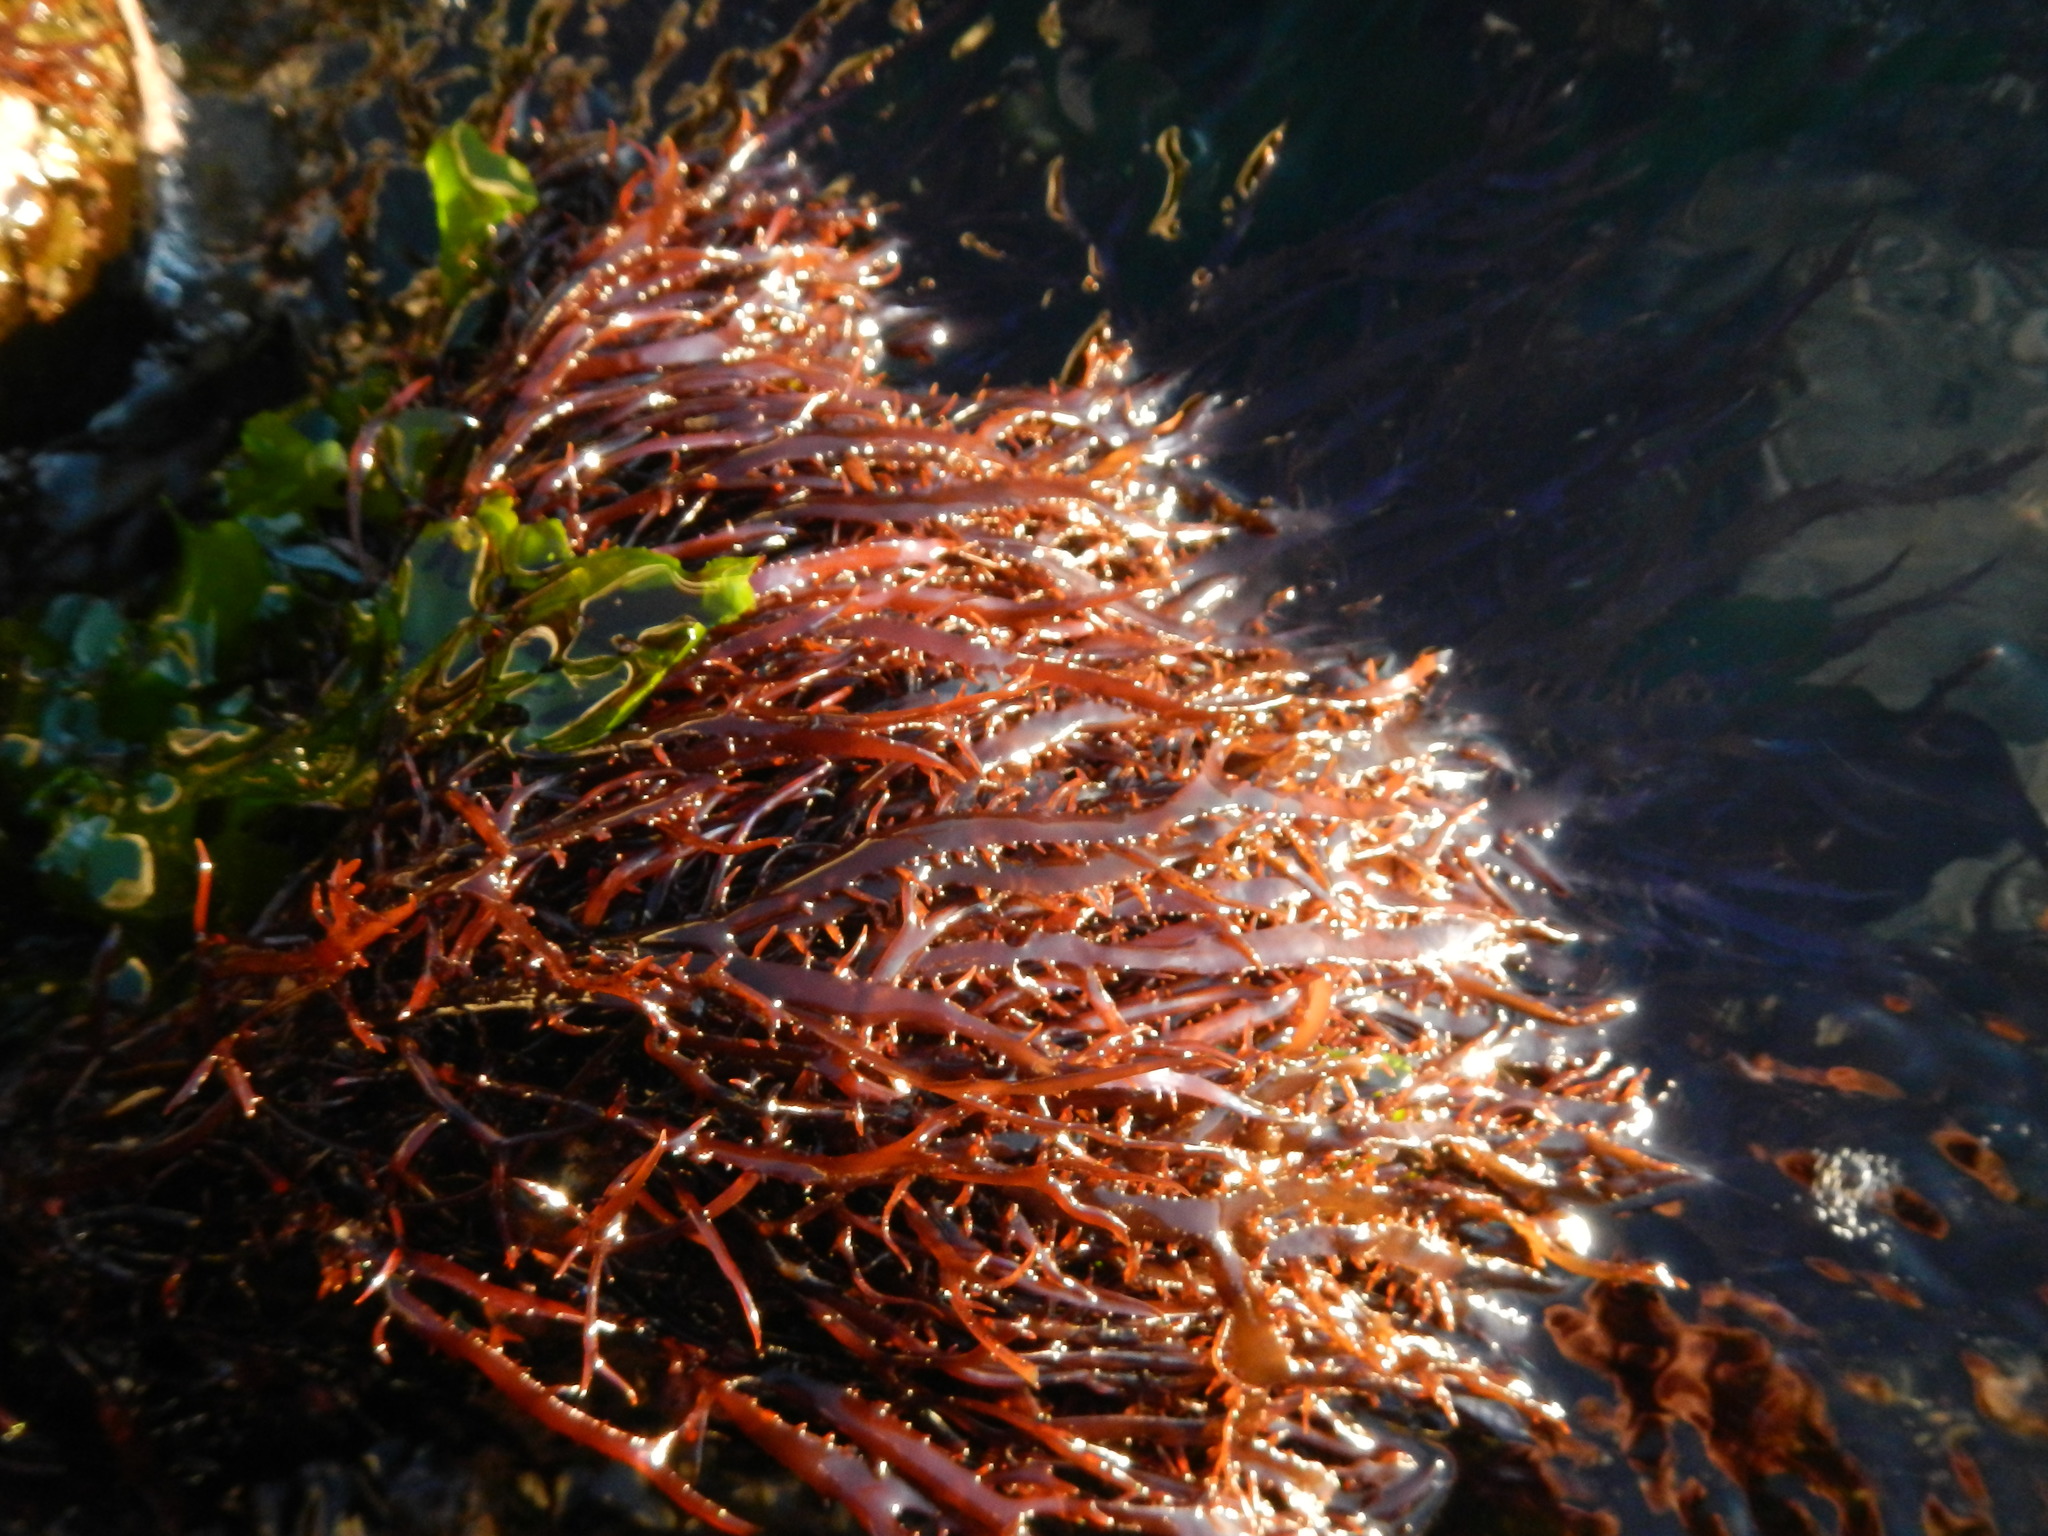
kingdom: Plantae
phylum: Rhodophyta
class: Florideophyceae
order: Gigartinales
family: Gigartinaceae
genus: Chondracanthus
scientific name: Chondracanthus chamissoi
